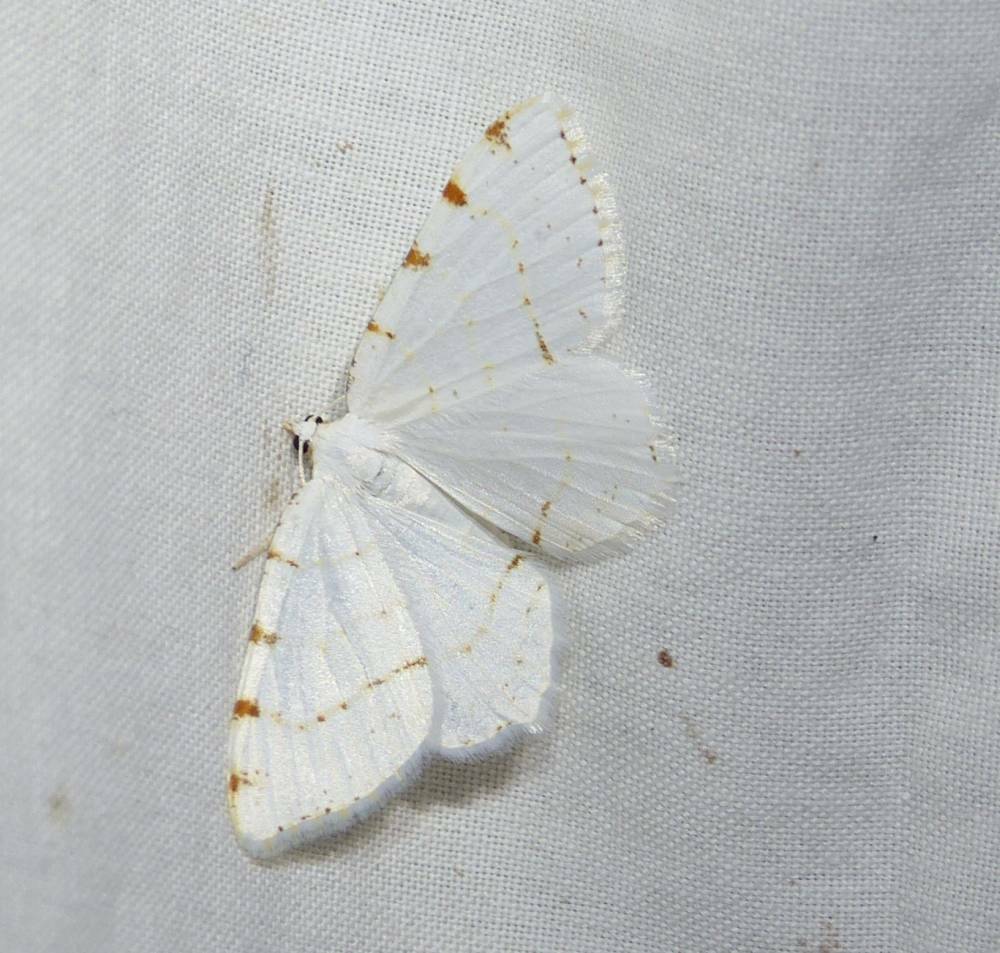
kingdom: Animalia
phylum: Arthropoda
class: Insecta
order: Lepidoptera
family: Geometridae
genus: Macaria
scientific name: Macaria pustularia
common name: Lesser maple spanworm moth
